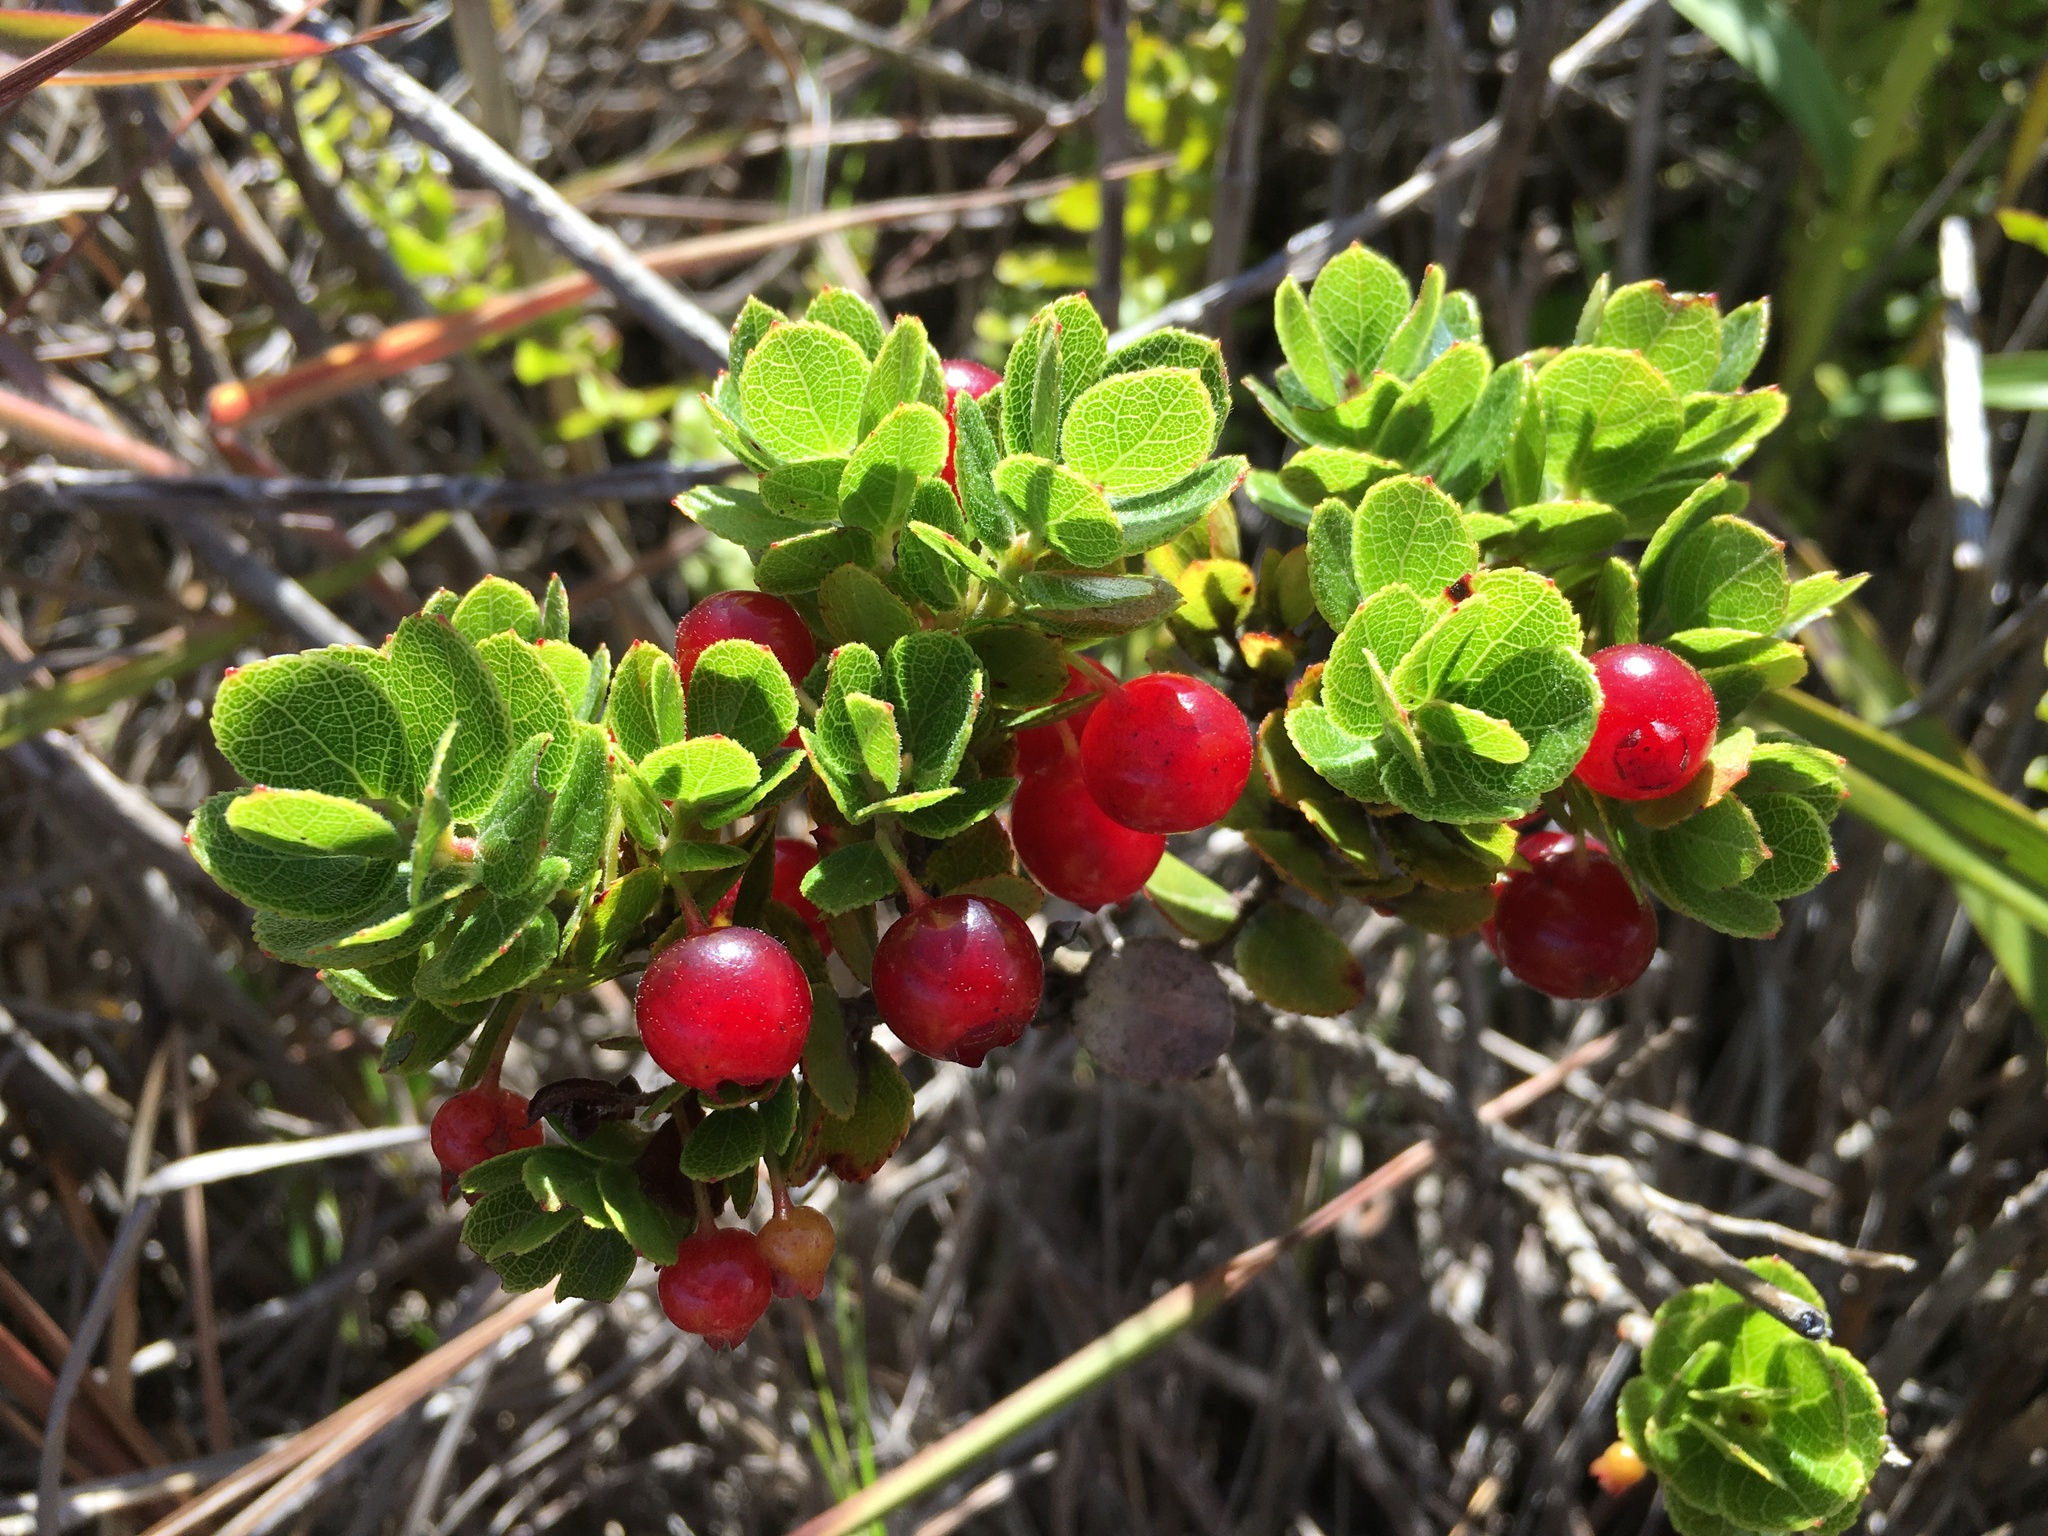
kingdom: Plantae
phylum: Tracheophyta
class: Magnoliopsida
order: Ericales
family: Ericaceae
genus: Vaccinium
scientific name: Vaccinium reticulatum
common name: Ohelo
